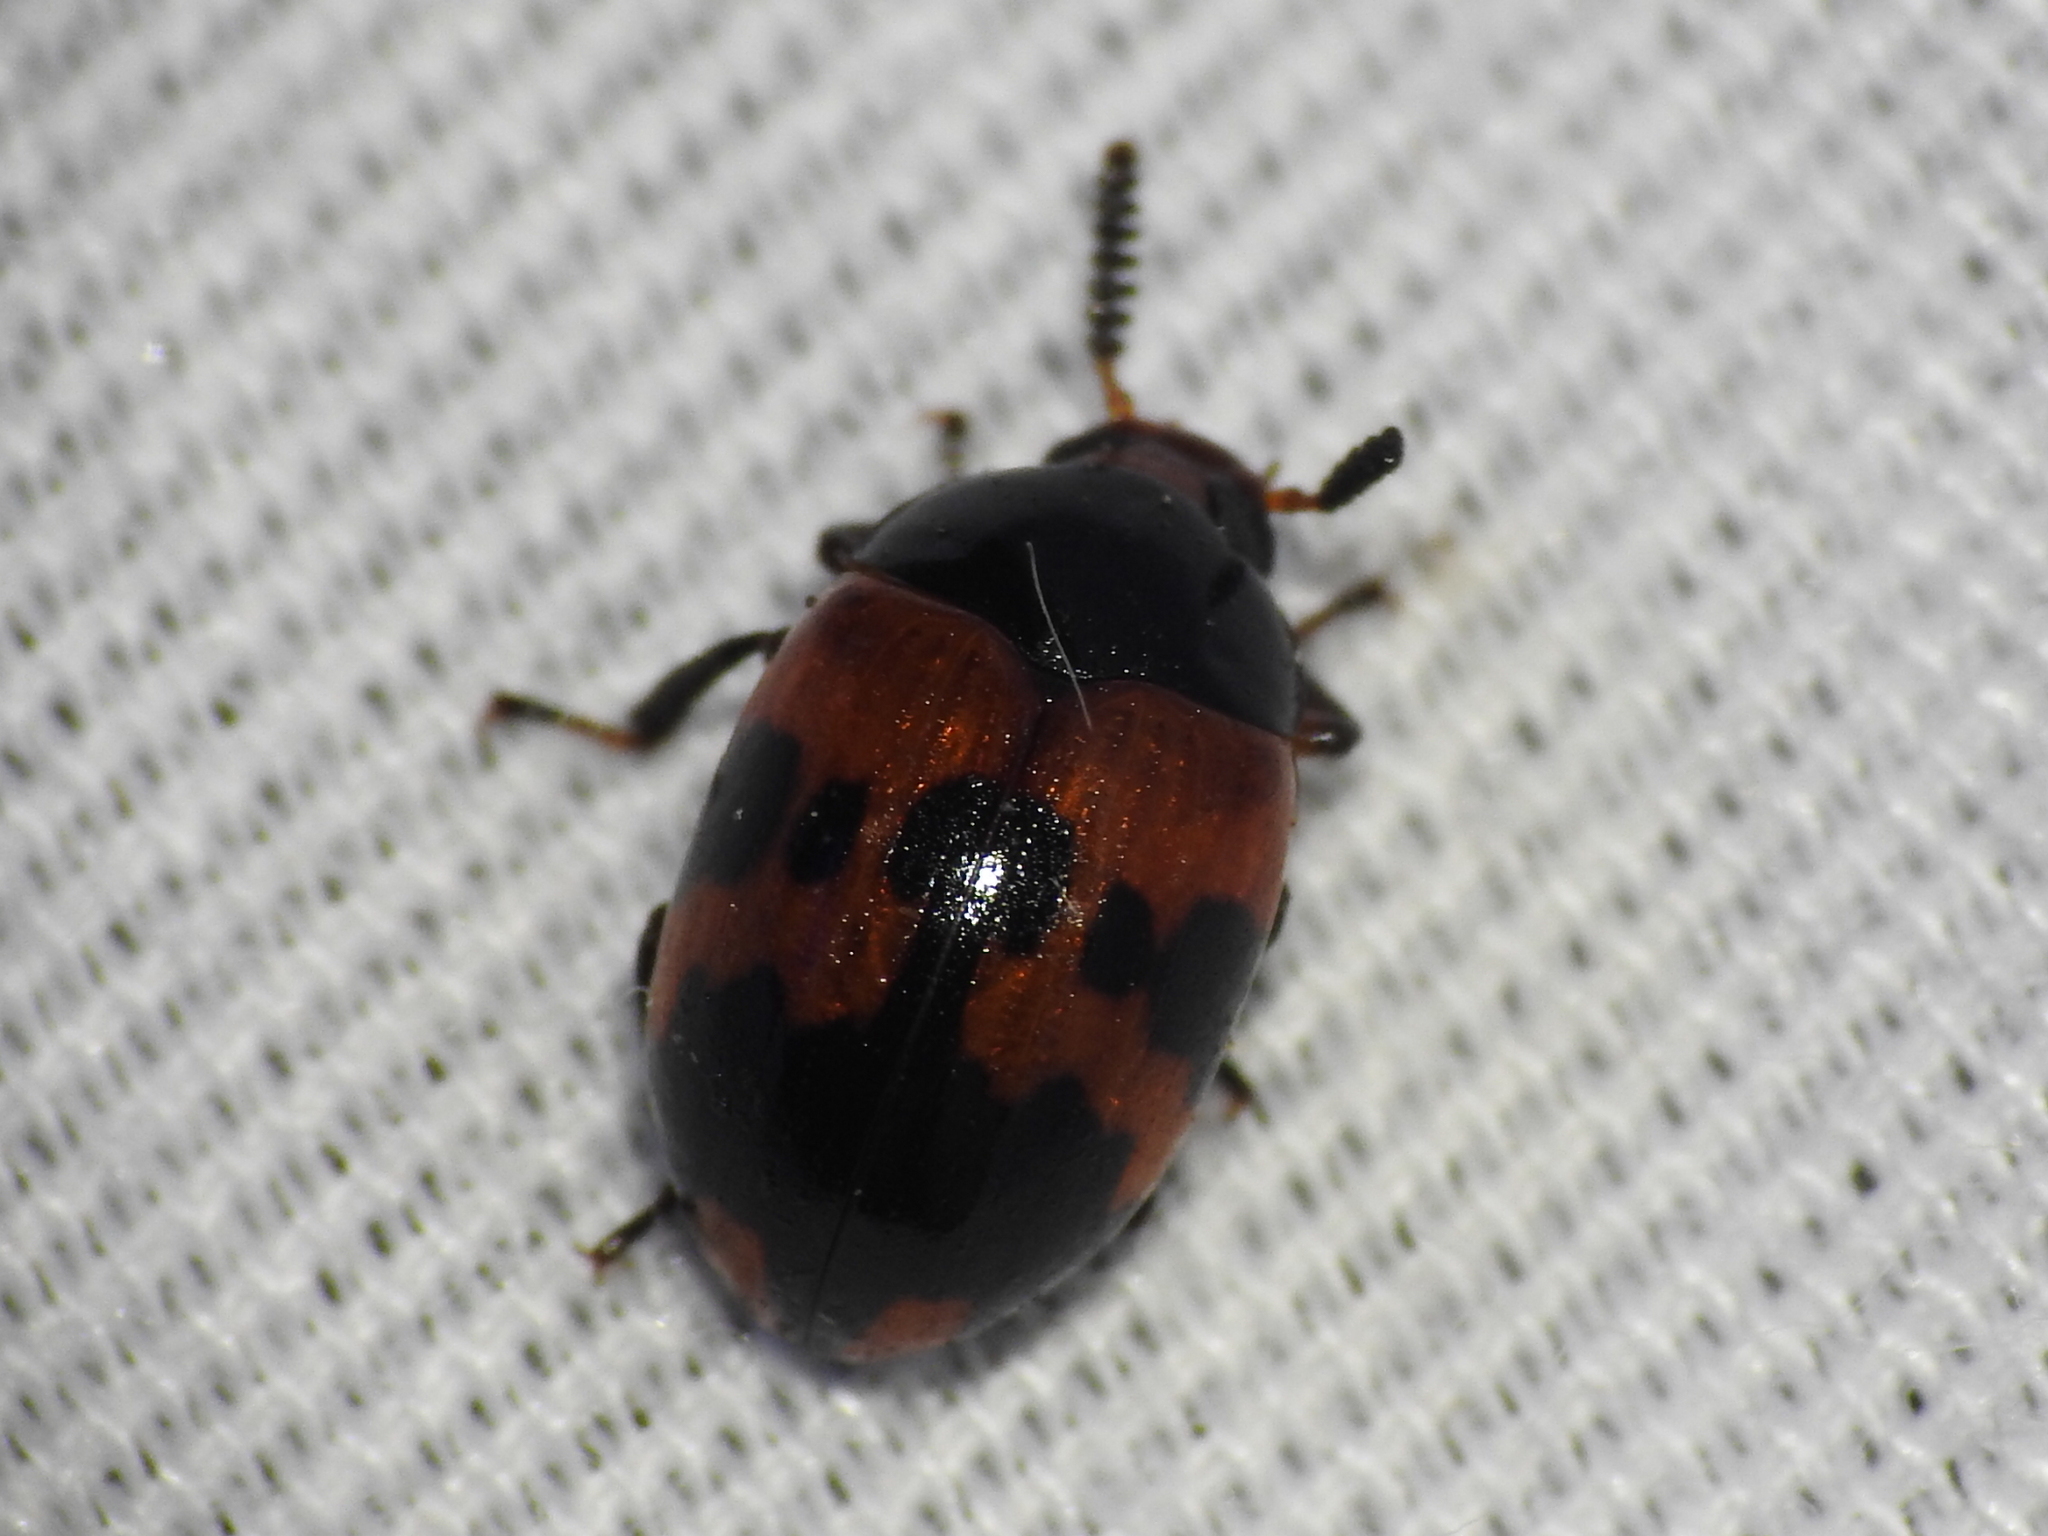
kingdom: Animalia
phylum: Arthropoda
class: Insecta
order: Coleoptera
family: Tenebrionidae
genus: Diaperis
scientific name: Diaperis nigronotata
